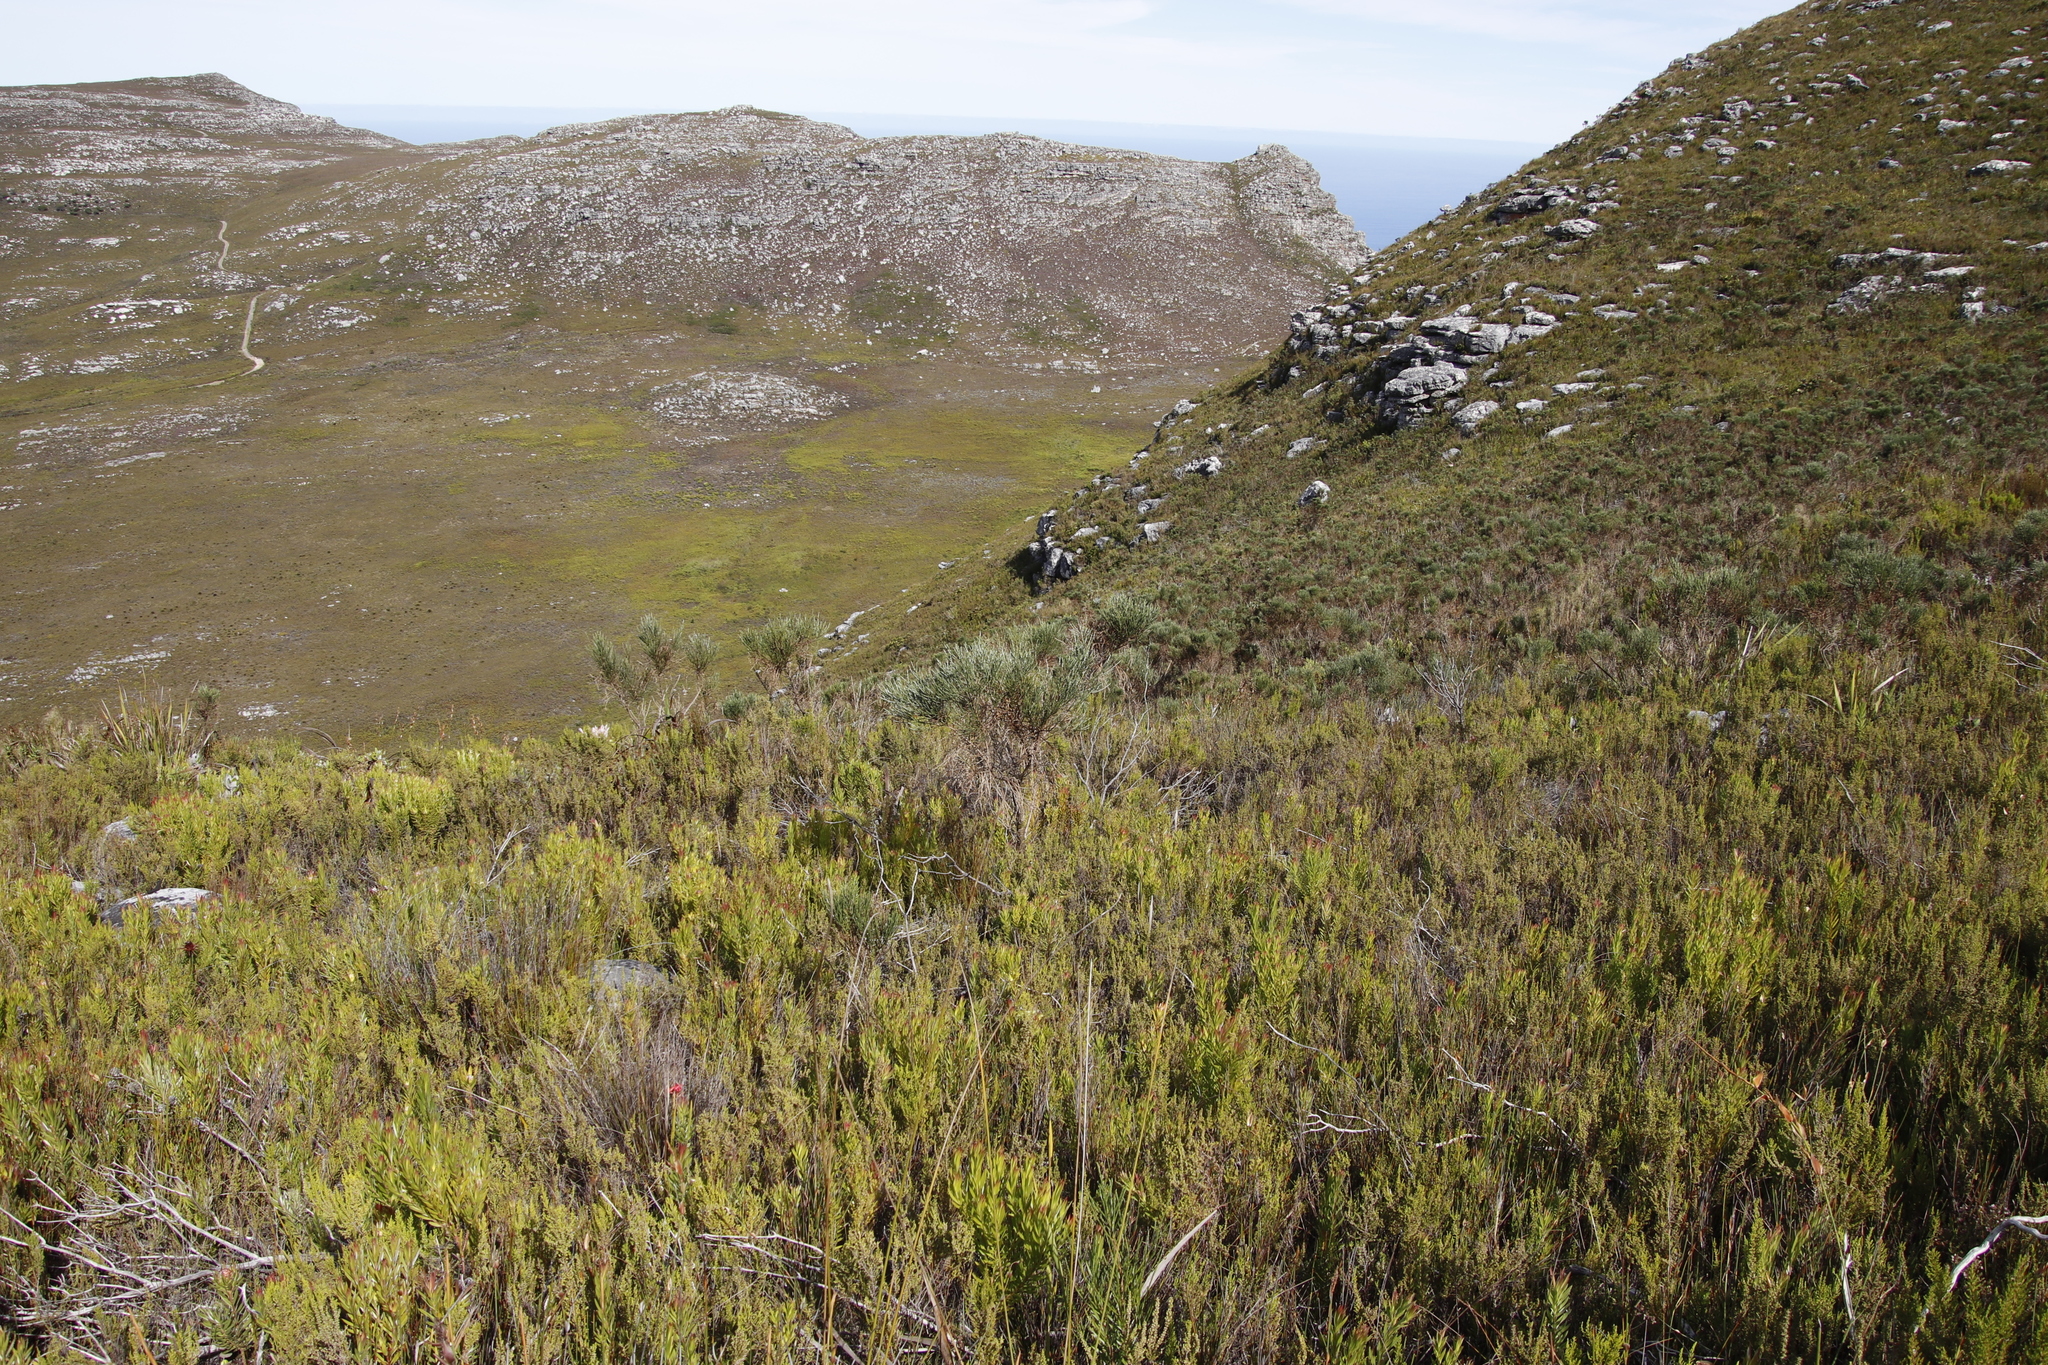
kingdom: Plantae
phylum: Tracheophyta
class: Magnoliopsida
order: Fabales
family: Fabaceae
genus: Psoralea
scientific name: Psoralea congesta
